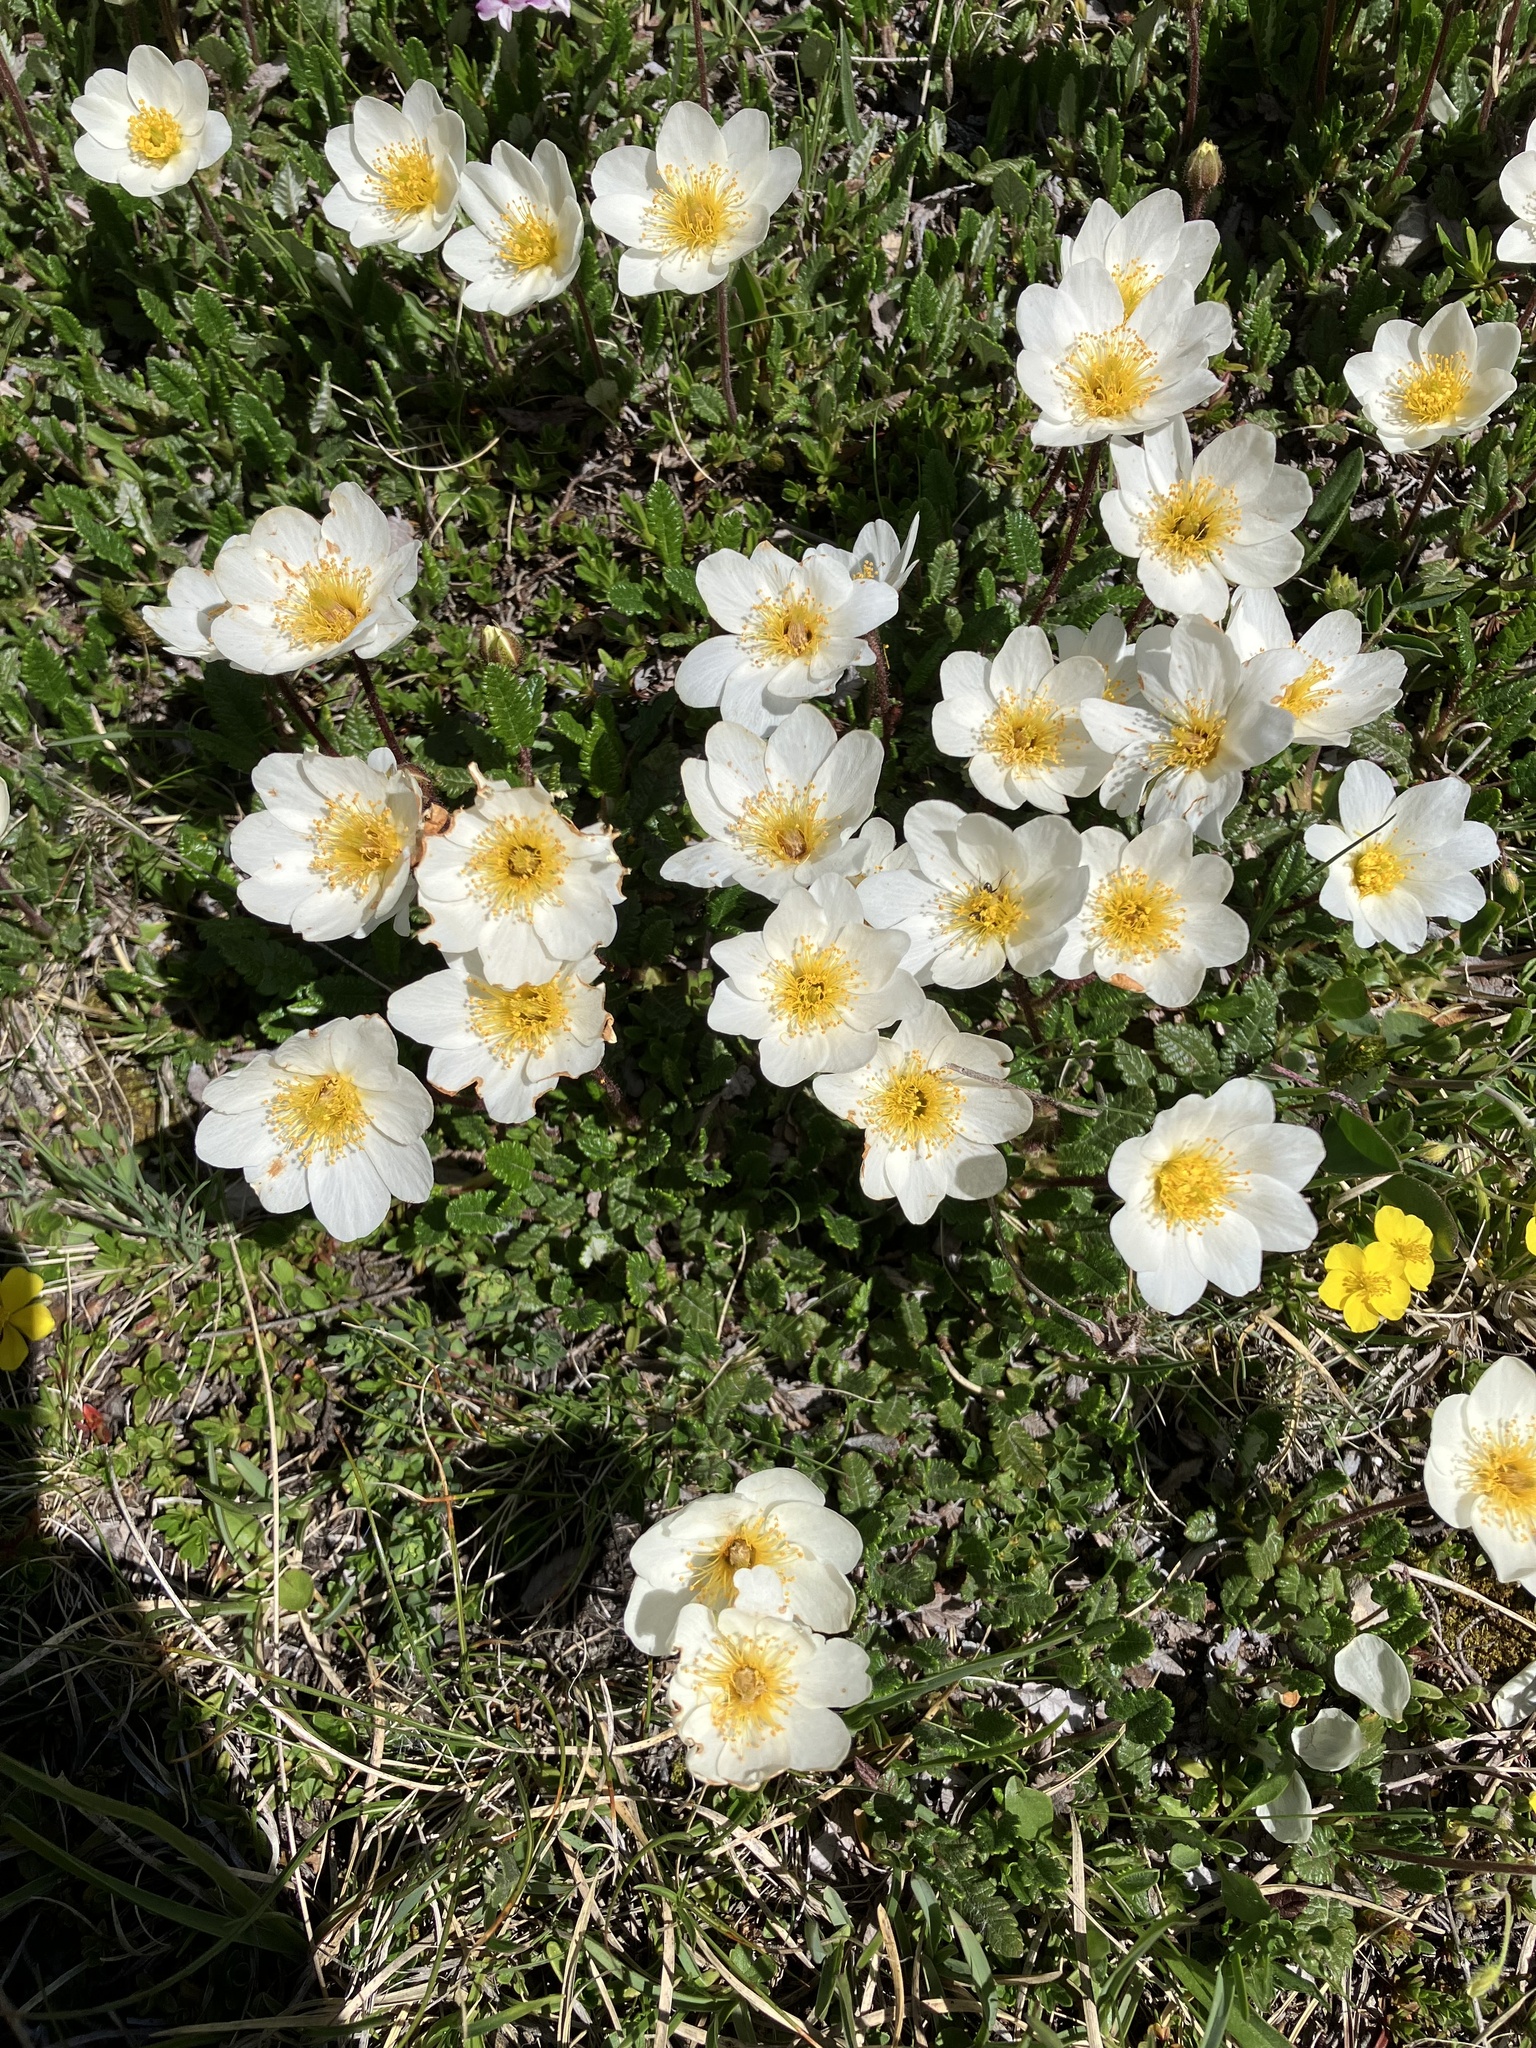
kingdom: Plantae
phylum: Tracheophyta
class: Magnoliopsida
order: Rosales
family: Rosaceae
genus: Dryas
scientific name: Dryas octopetala
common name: Eight-petal mountain-avens
